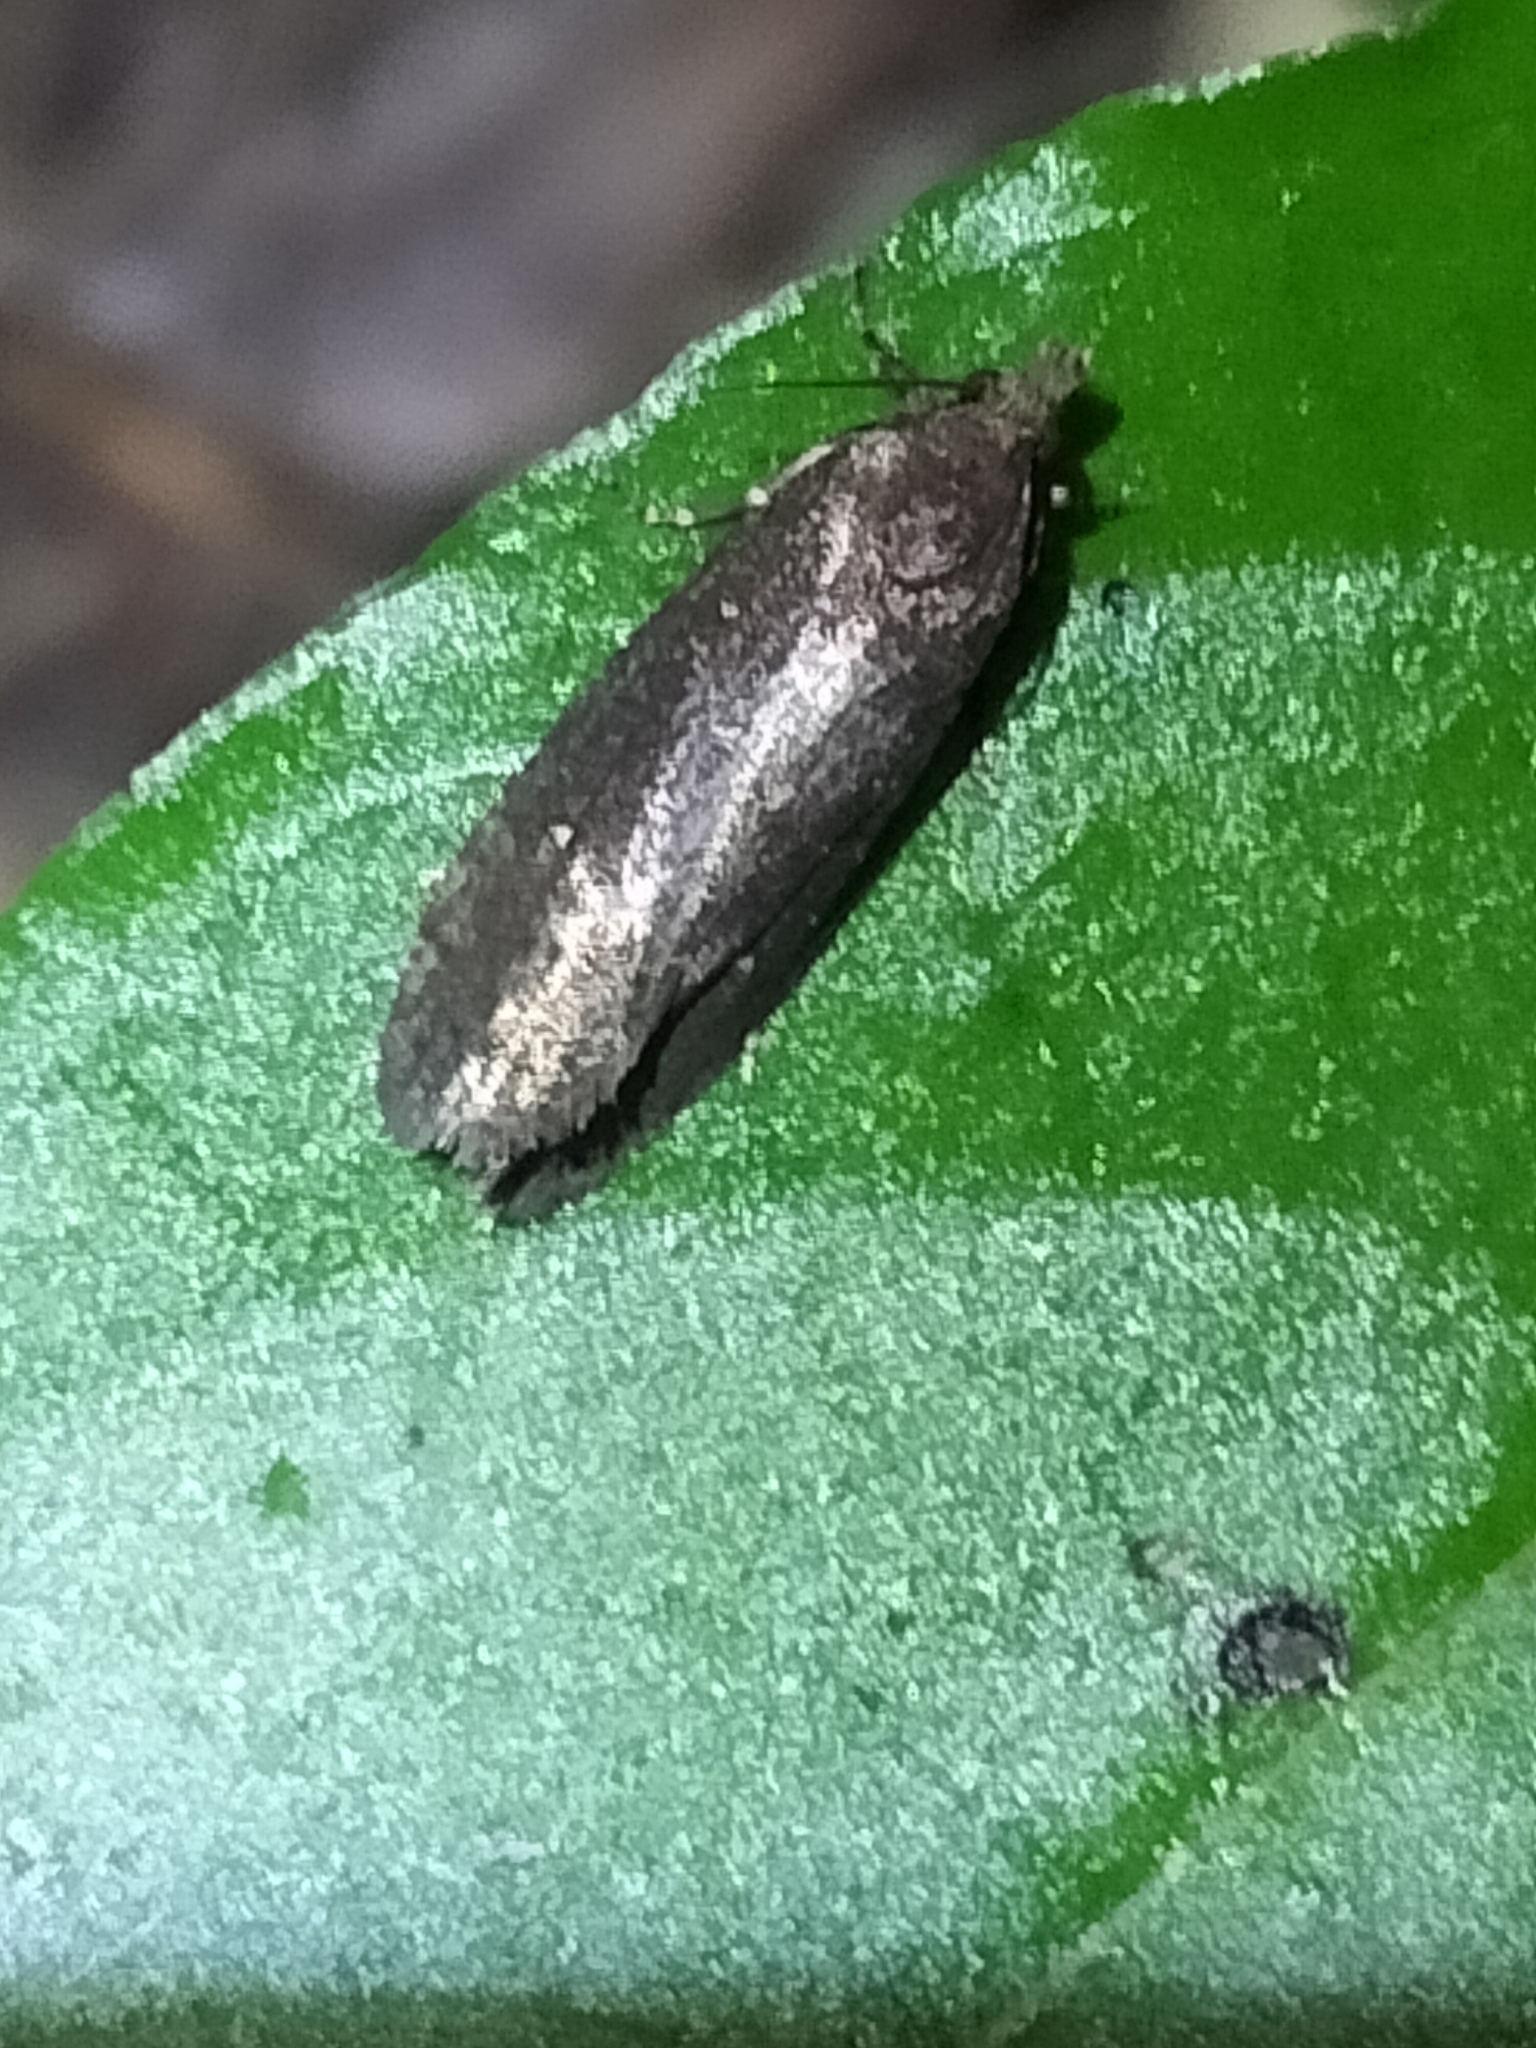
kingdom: Animalia
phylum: Arthropoda
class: Insecta
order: Lepidoptera
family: Tortricidae
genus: Cryptaspasma
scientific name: Cryptaspasma querula
